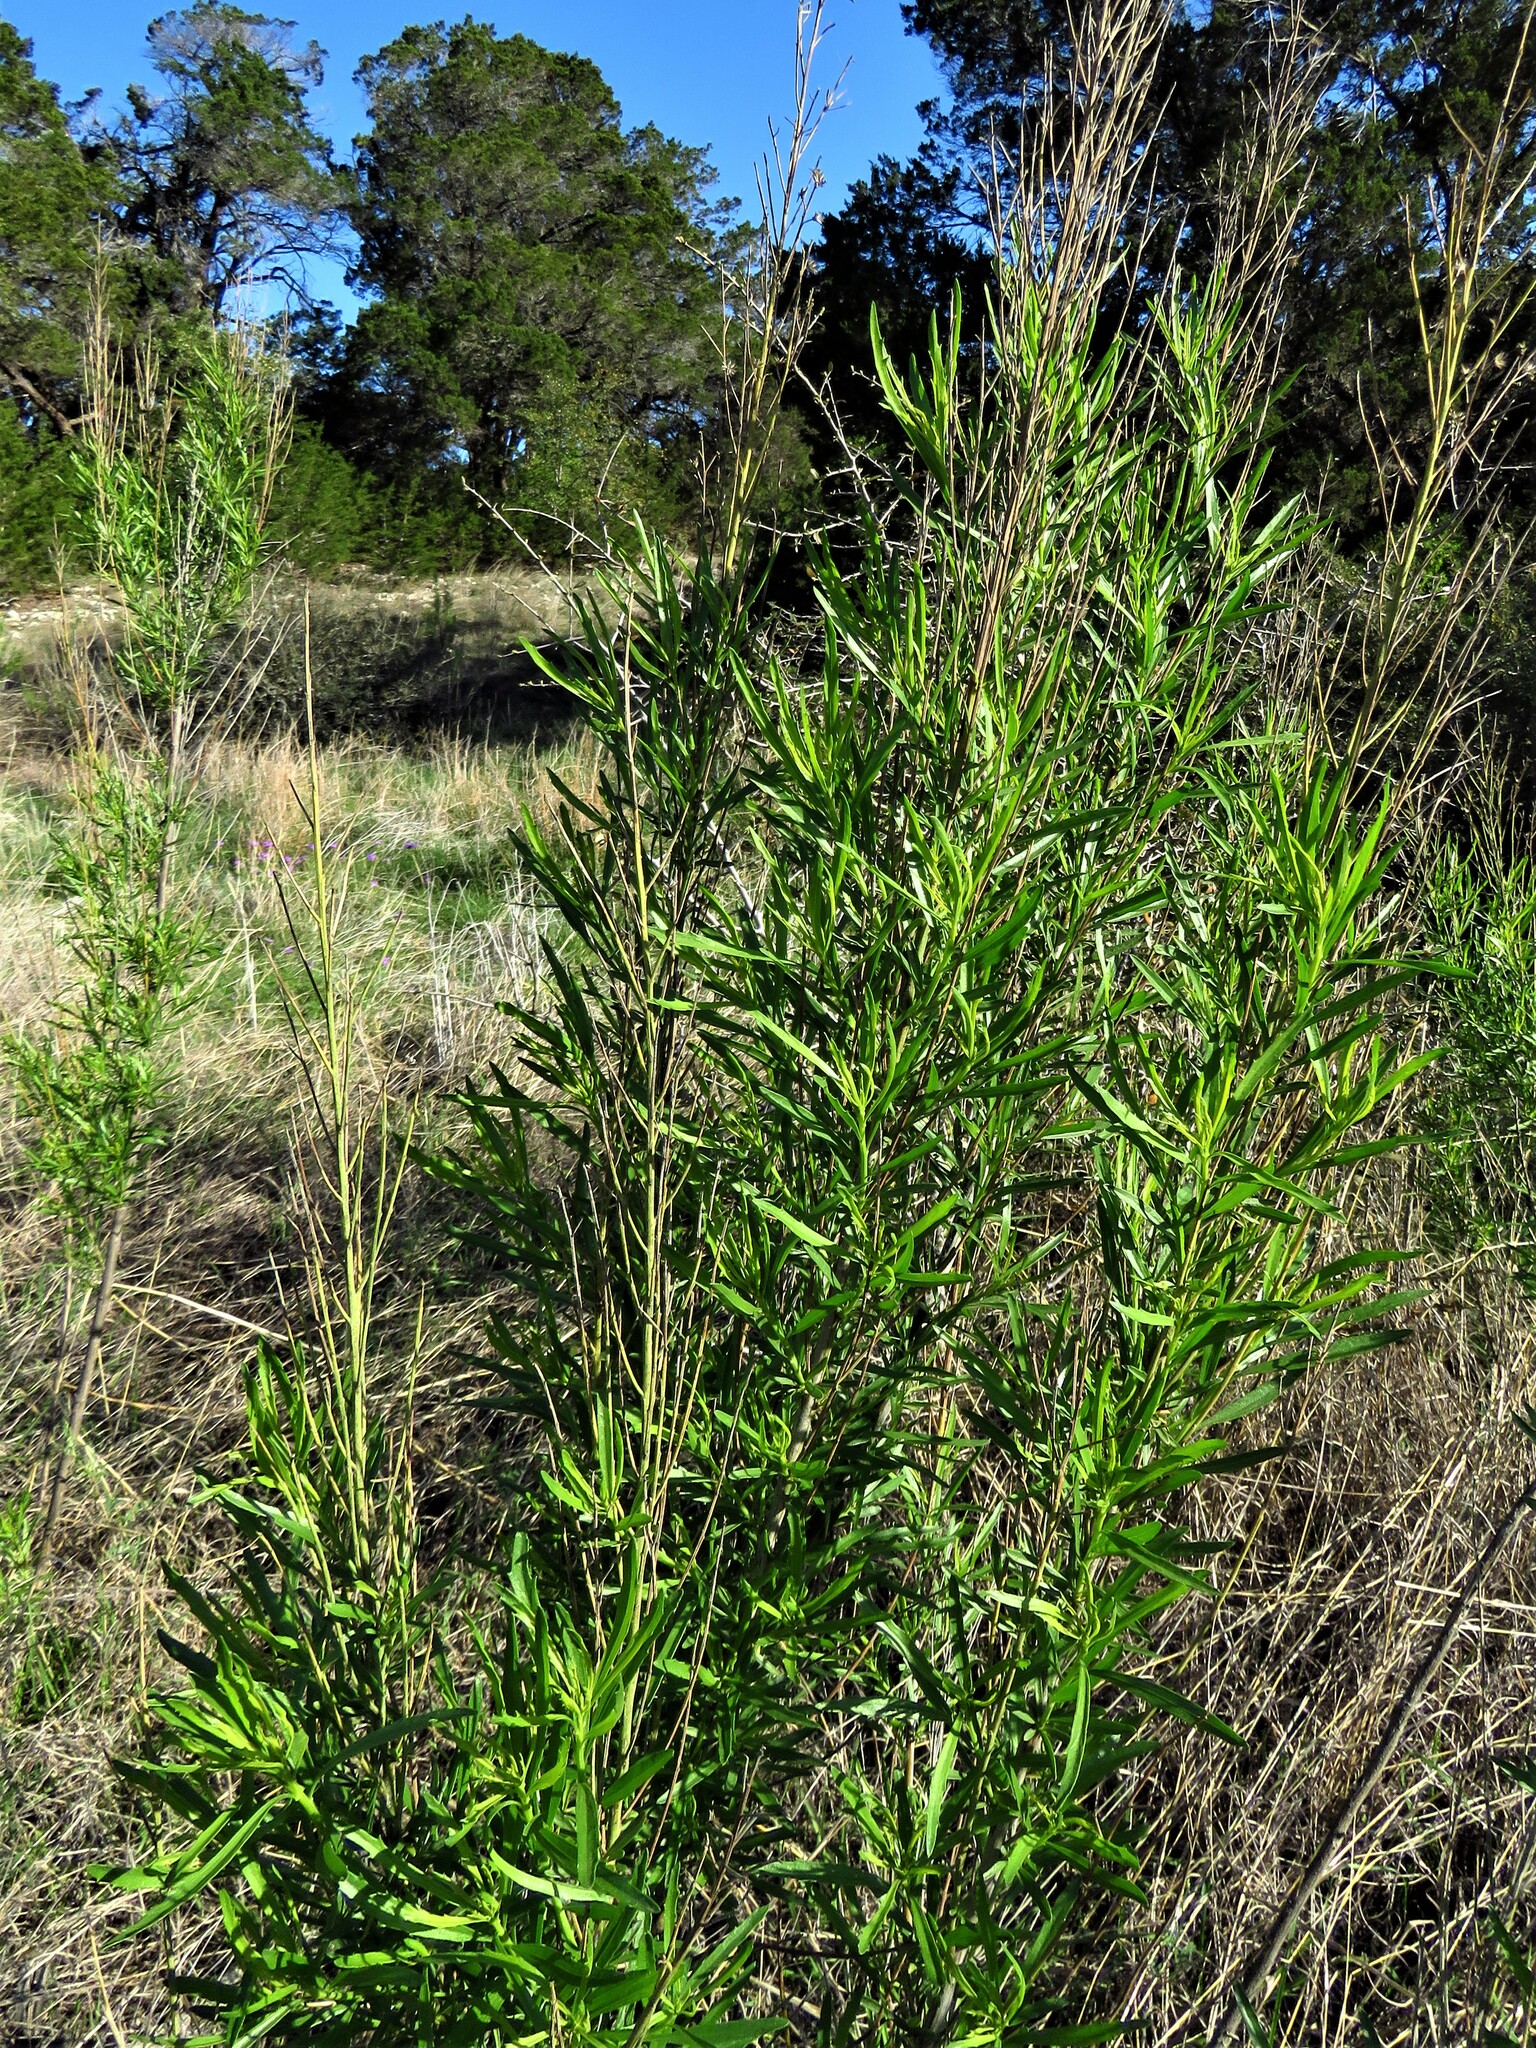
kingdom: Plantae
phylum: Tracheophyta
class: Magnoliopsida
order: Asterales
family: Asteraceae
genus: Baccharis
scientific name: Baccharis neglecta
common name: Roosevelt-weed
